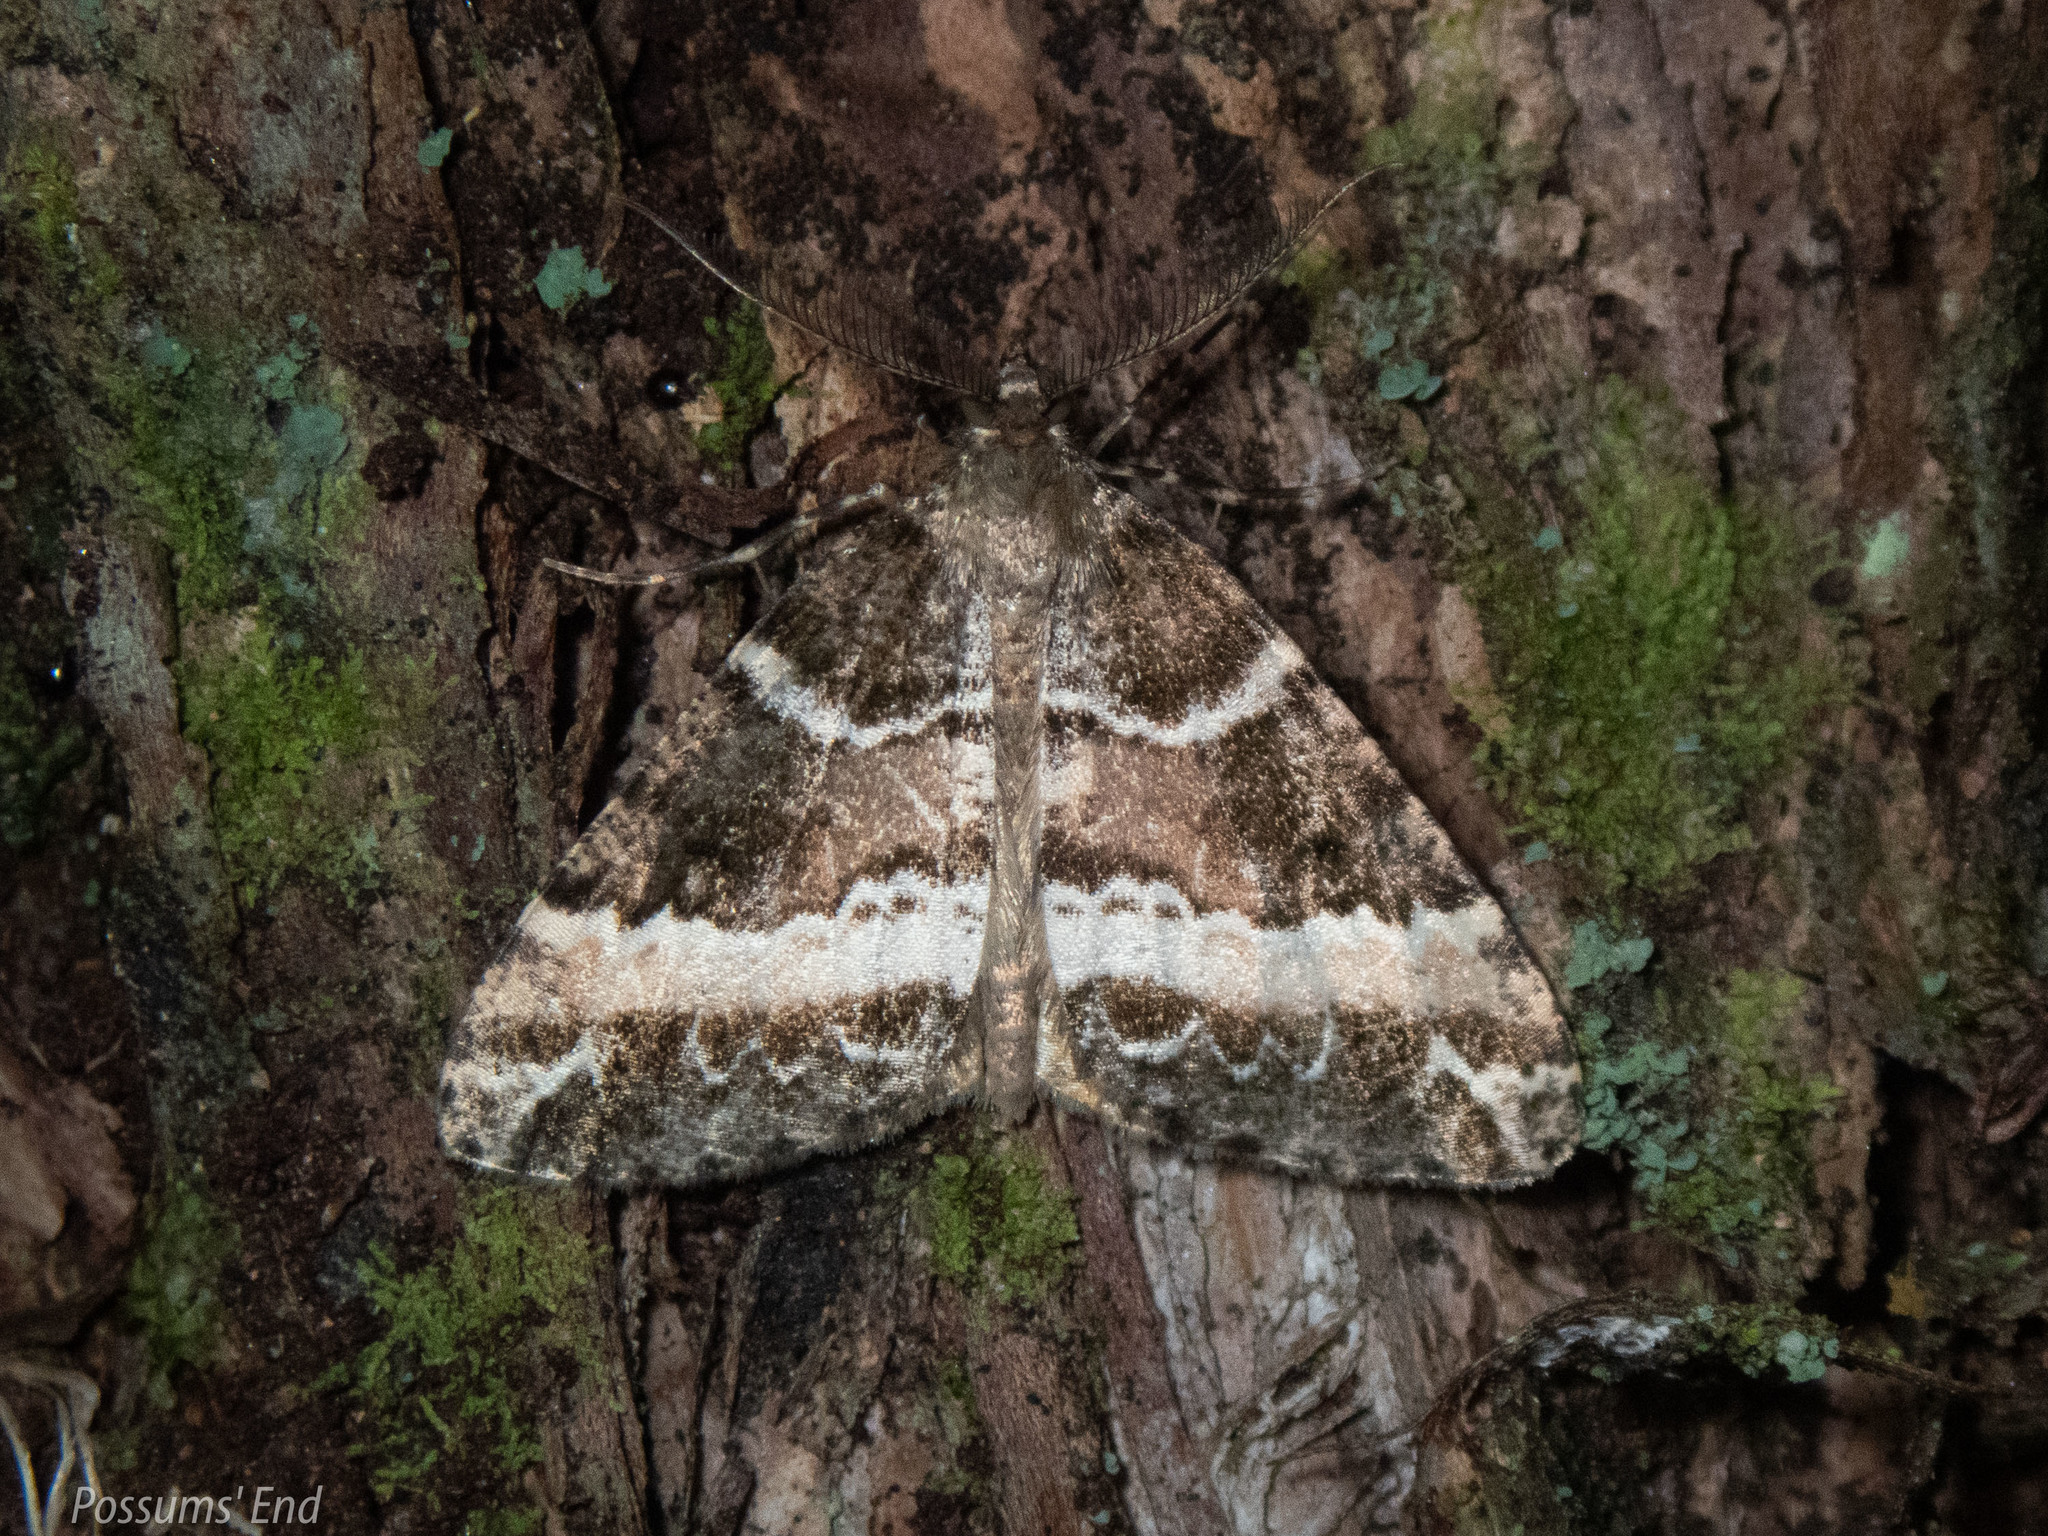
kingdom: Animalia
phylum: Arthropoda
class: Insecta
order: Lepidoptera
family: Geometridae
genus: Pseudocoremia
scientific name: Pseudocoremia
